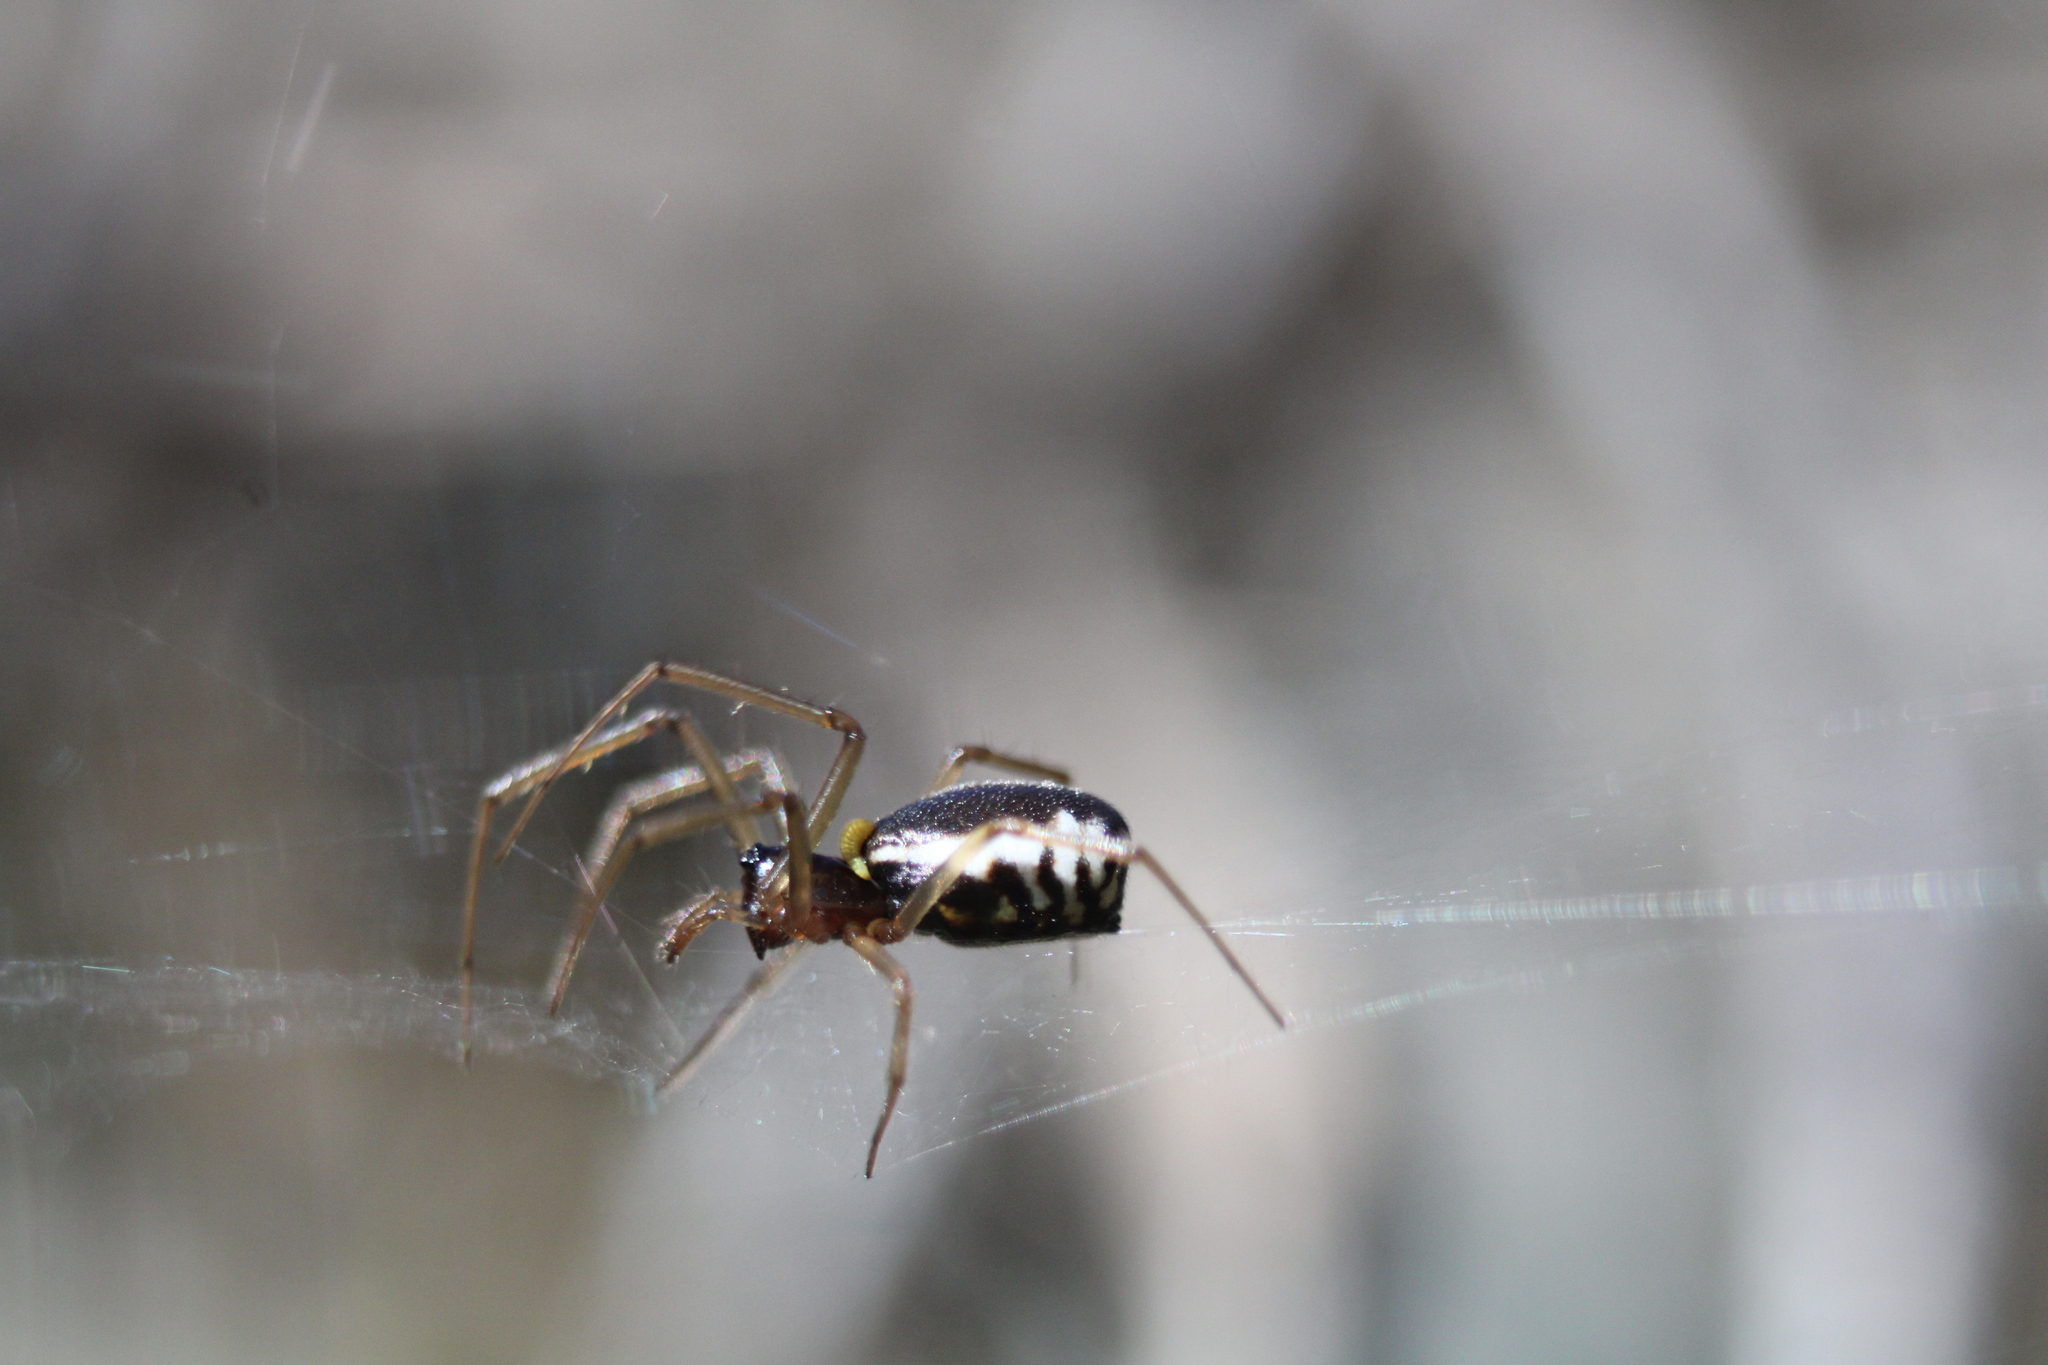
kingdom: Animalia
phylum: Arthropoda
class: Arachnida
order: Araneae
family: Linyphiidae
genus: Frontinella
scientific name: Frontinella pyramitela
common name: Bowl-and-doily spider
